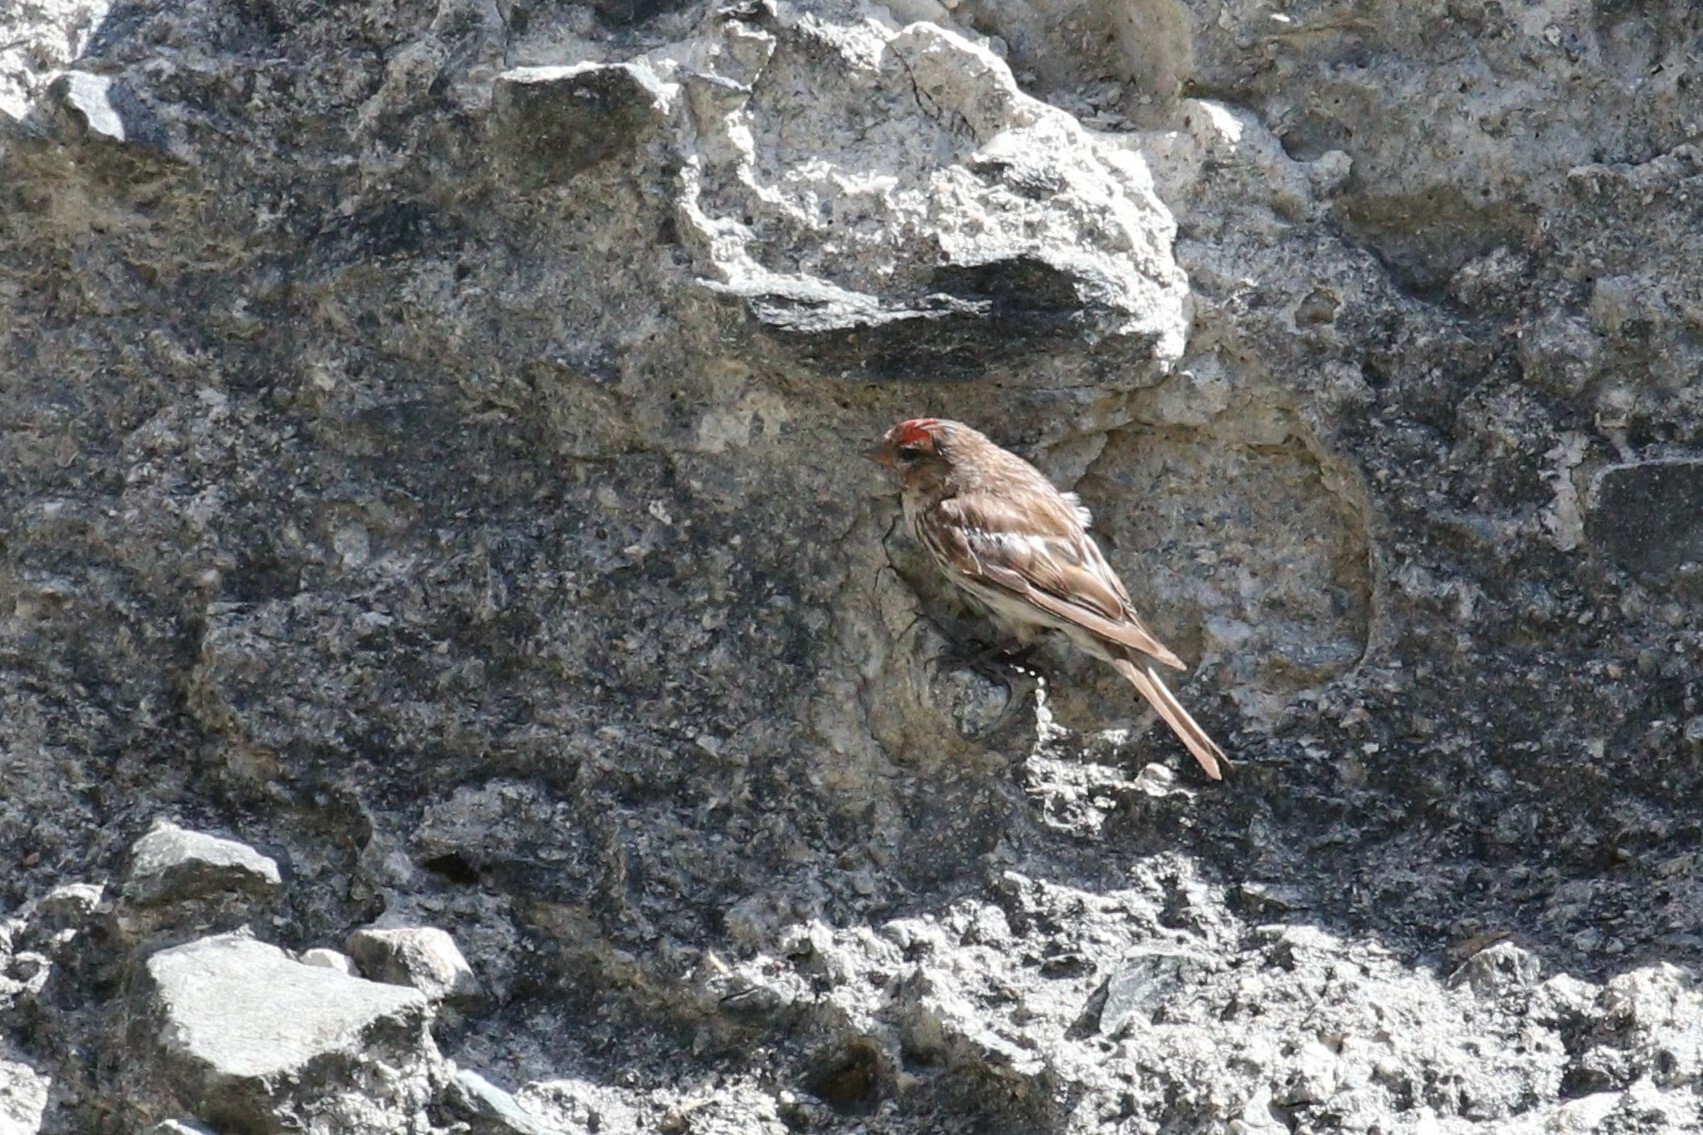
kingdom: Animalia
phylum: Chordata
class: Aves
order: Passeriformes
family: Fringillidae
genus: Acanthis
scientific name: Acanthis flammea
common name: Common redpoll
